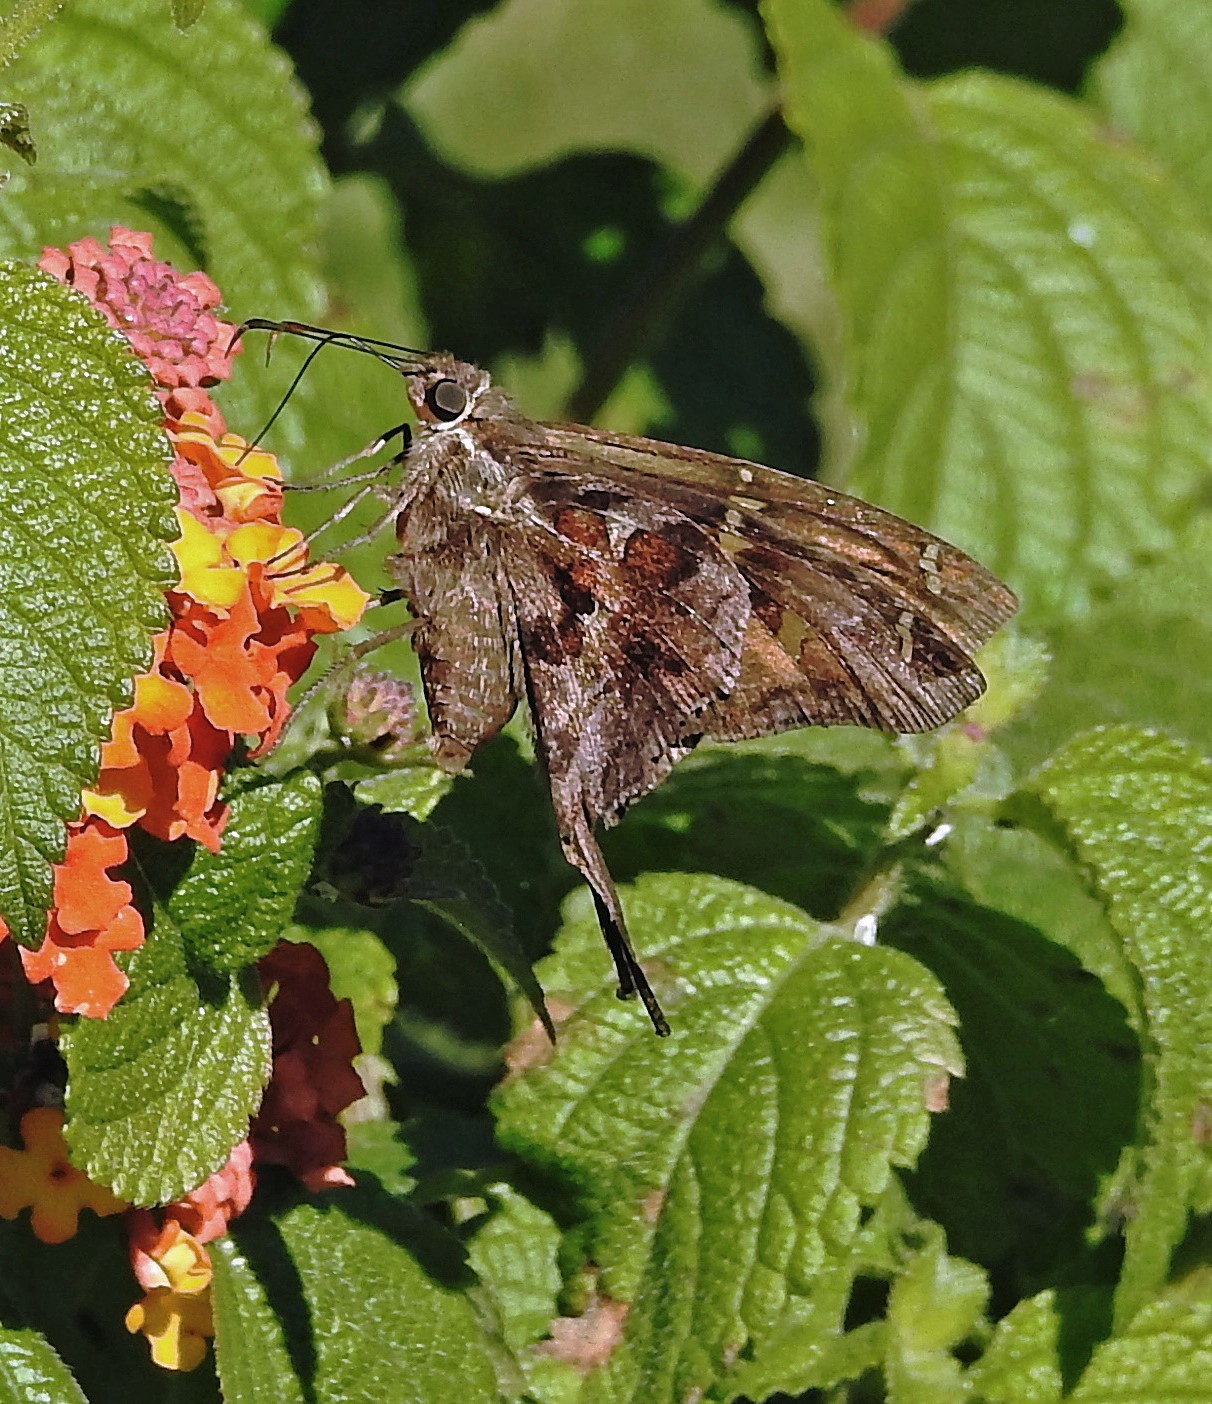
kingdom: Animalia
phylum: Arthropoda
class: Insecta
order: Lepidoptera
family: Hesperiidae
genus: Chioides
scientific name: Chioides catillus
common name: Silverbanded skipper
